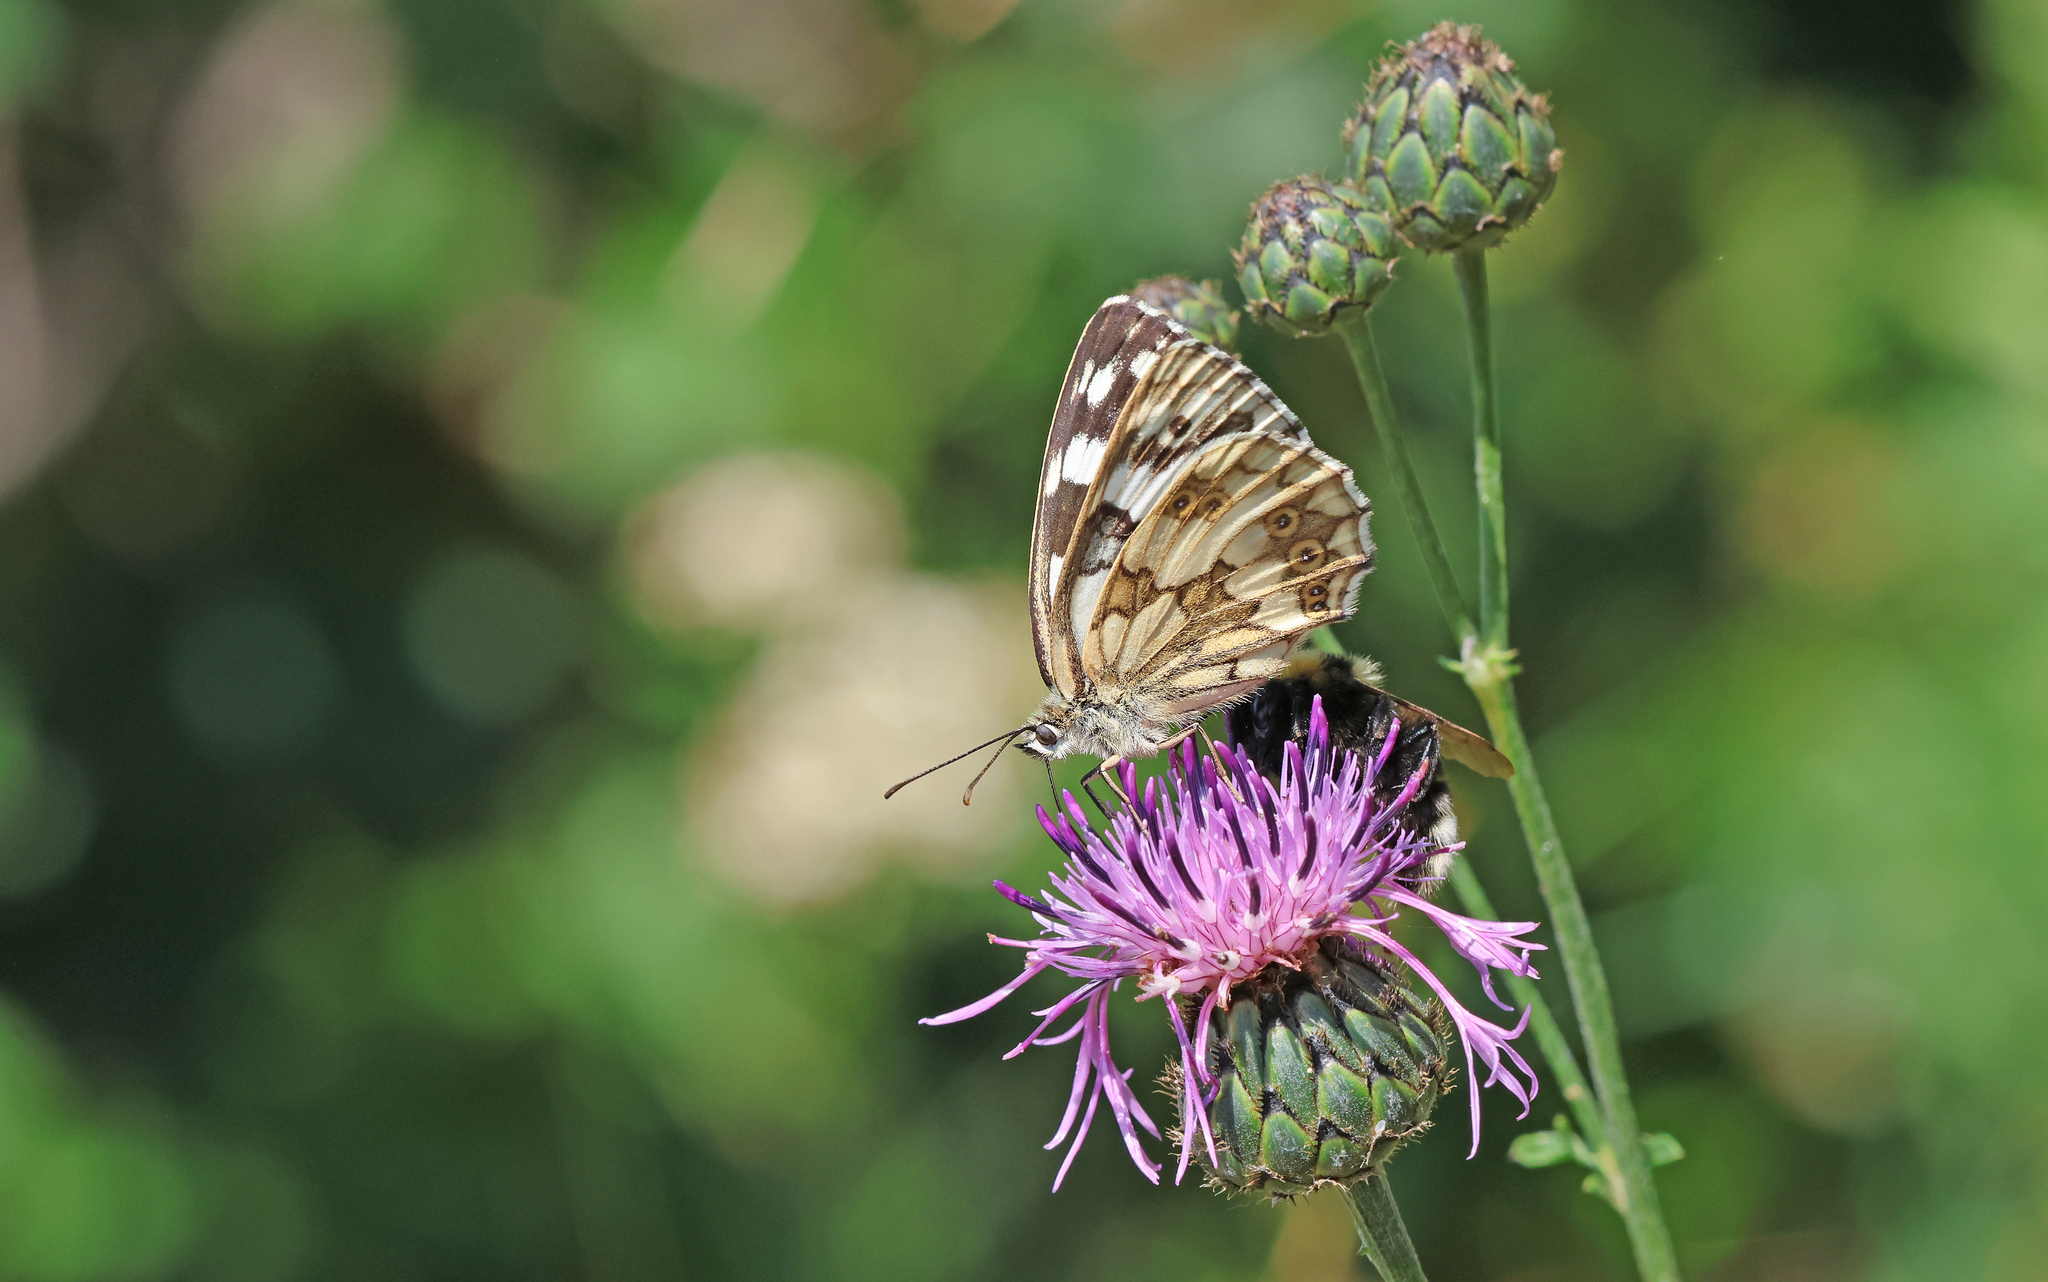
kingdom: Animalia
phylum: Arthropoda
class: Insecta
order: Lepidoptera
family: Nymphalidae
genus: Melanargia
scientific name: Melanargia galathea
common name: Marbled white
